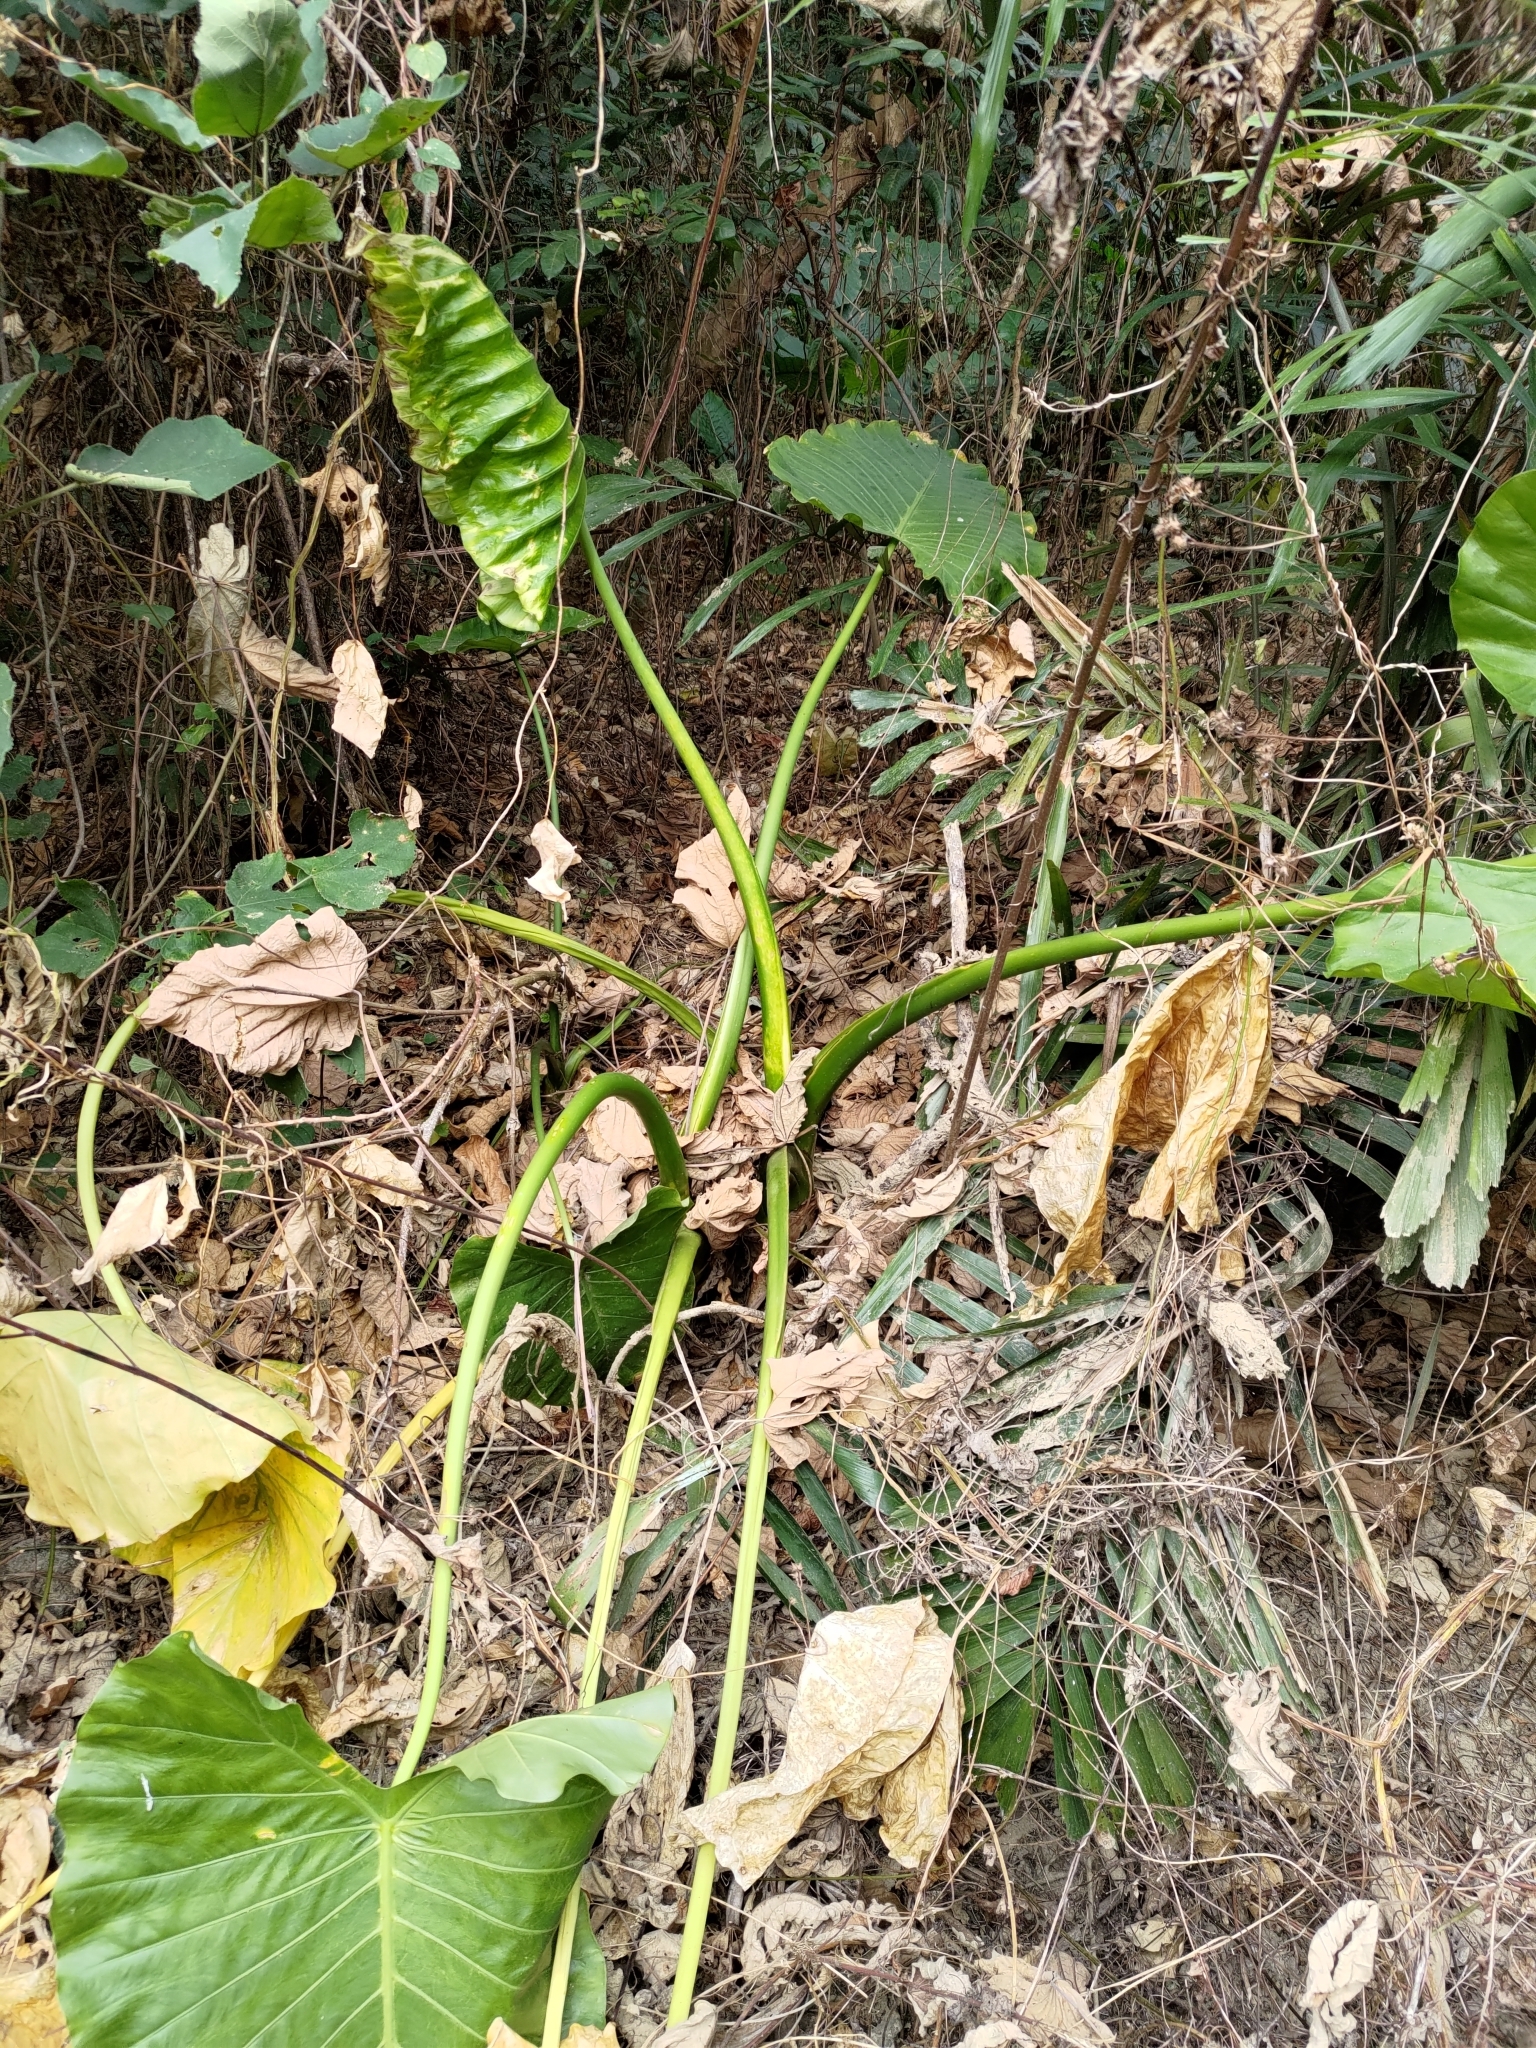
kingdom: Plantae
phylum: Tracheophyta
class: Liliopsida
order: Alismatales
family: Araceae
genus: Alocasia
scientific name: Alocasia odora
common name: Asian taro
